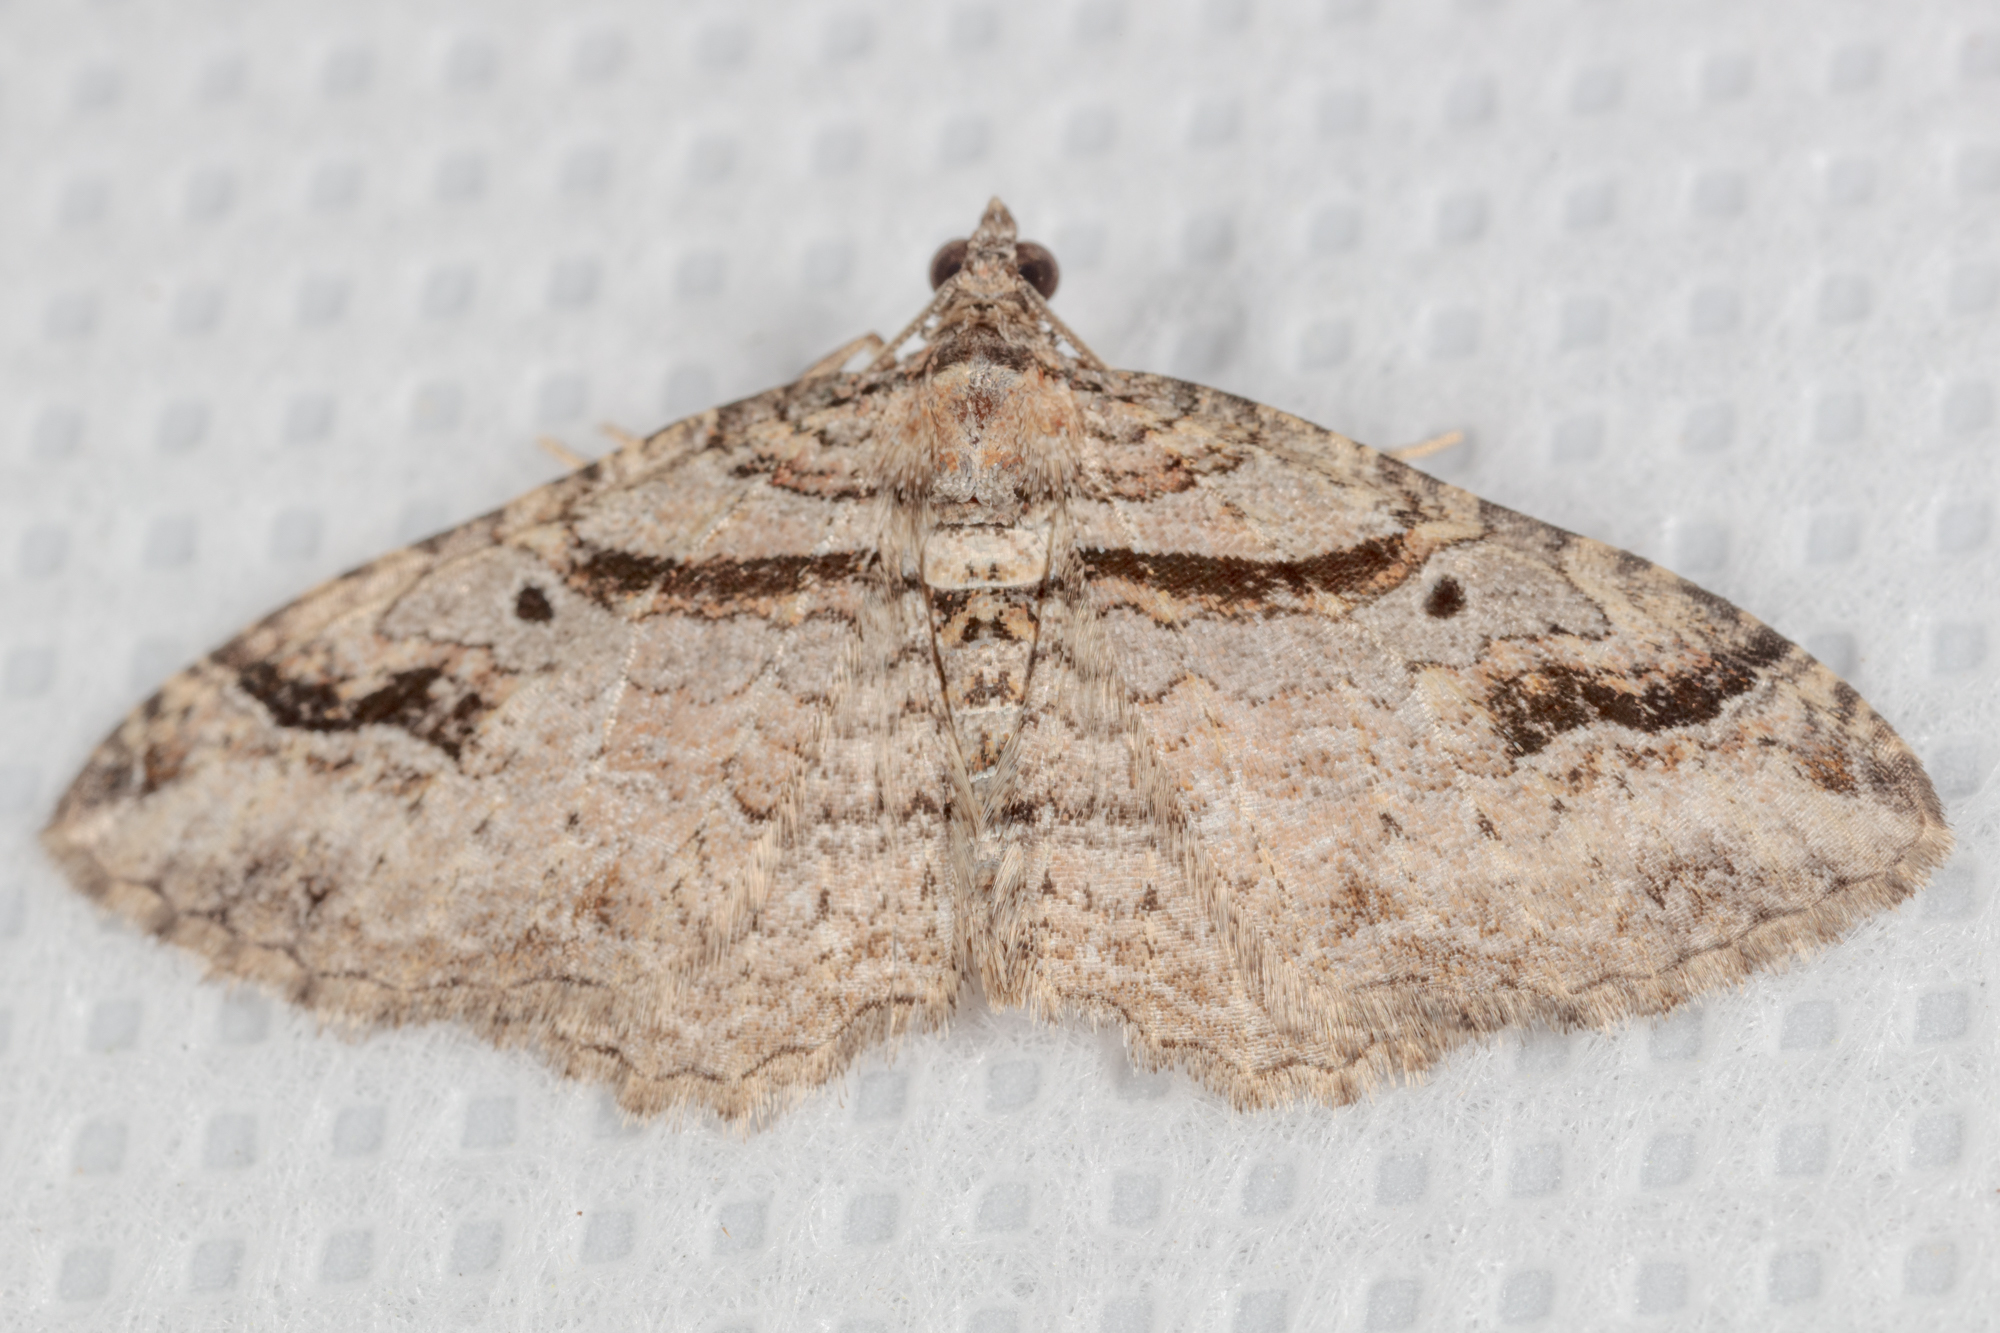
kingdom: Animalia
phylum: Arthropoda
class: Insecta
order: Lepidoptera
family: Geometridae
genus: Costaconvexa
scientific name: Costaconvexa centrostrigaria
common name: Bent-line carpet
